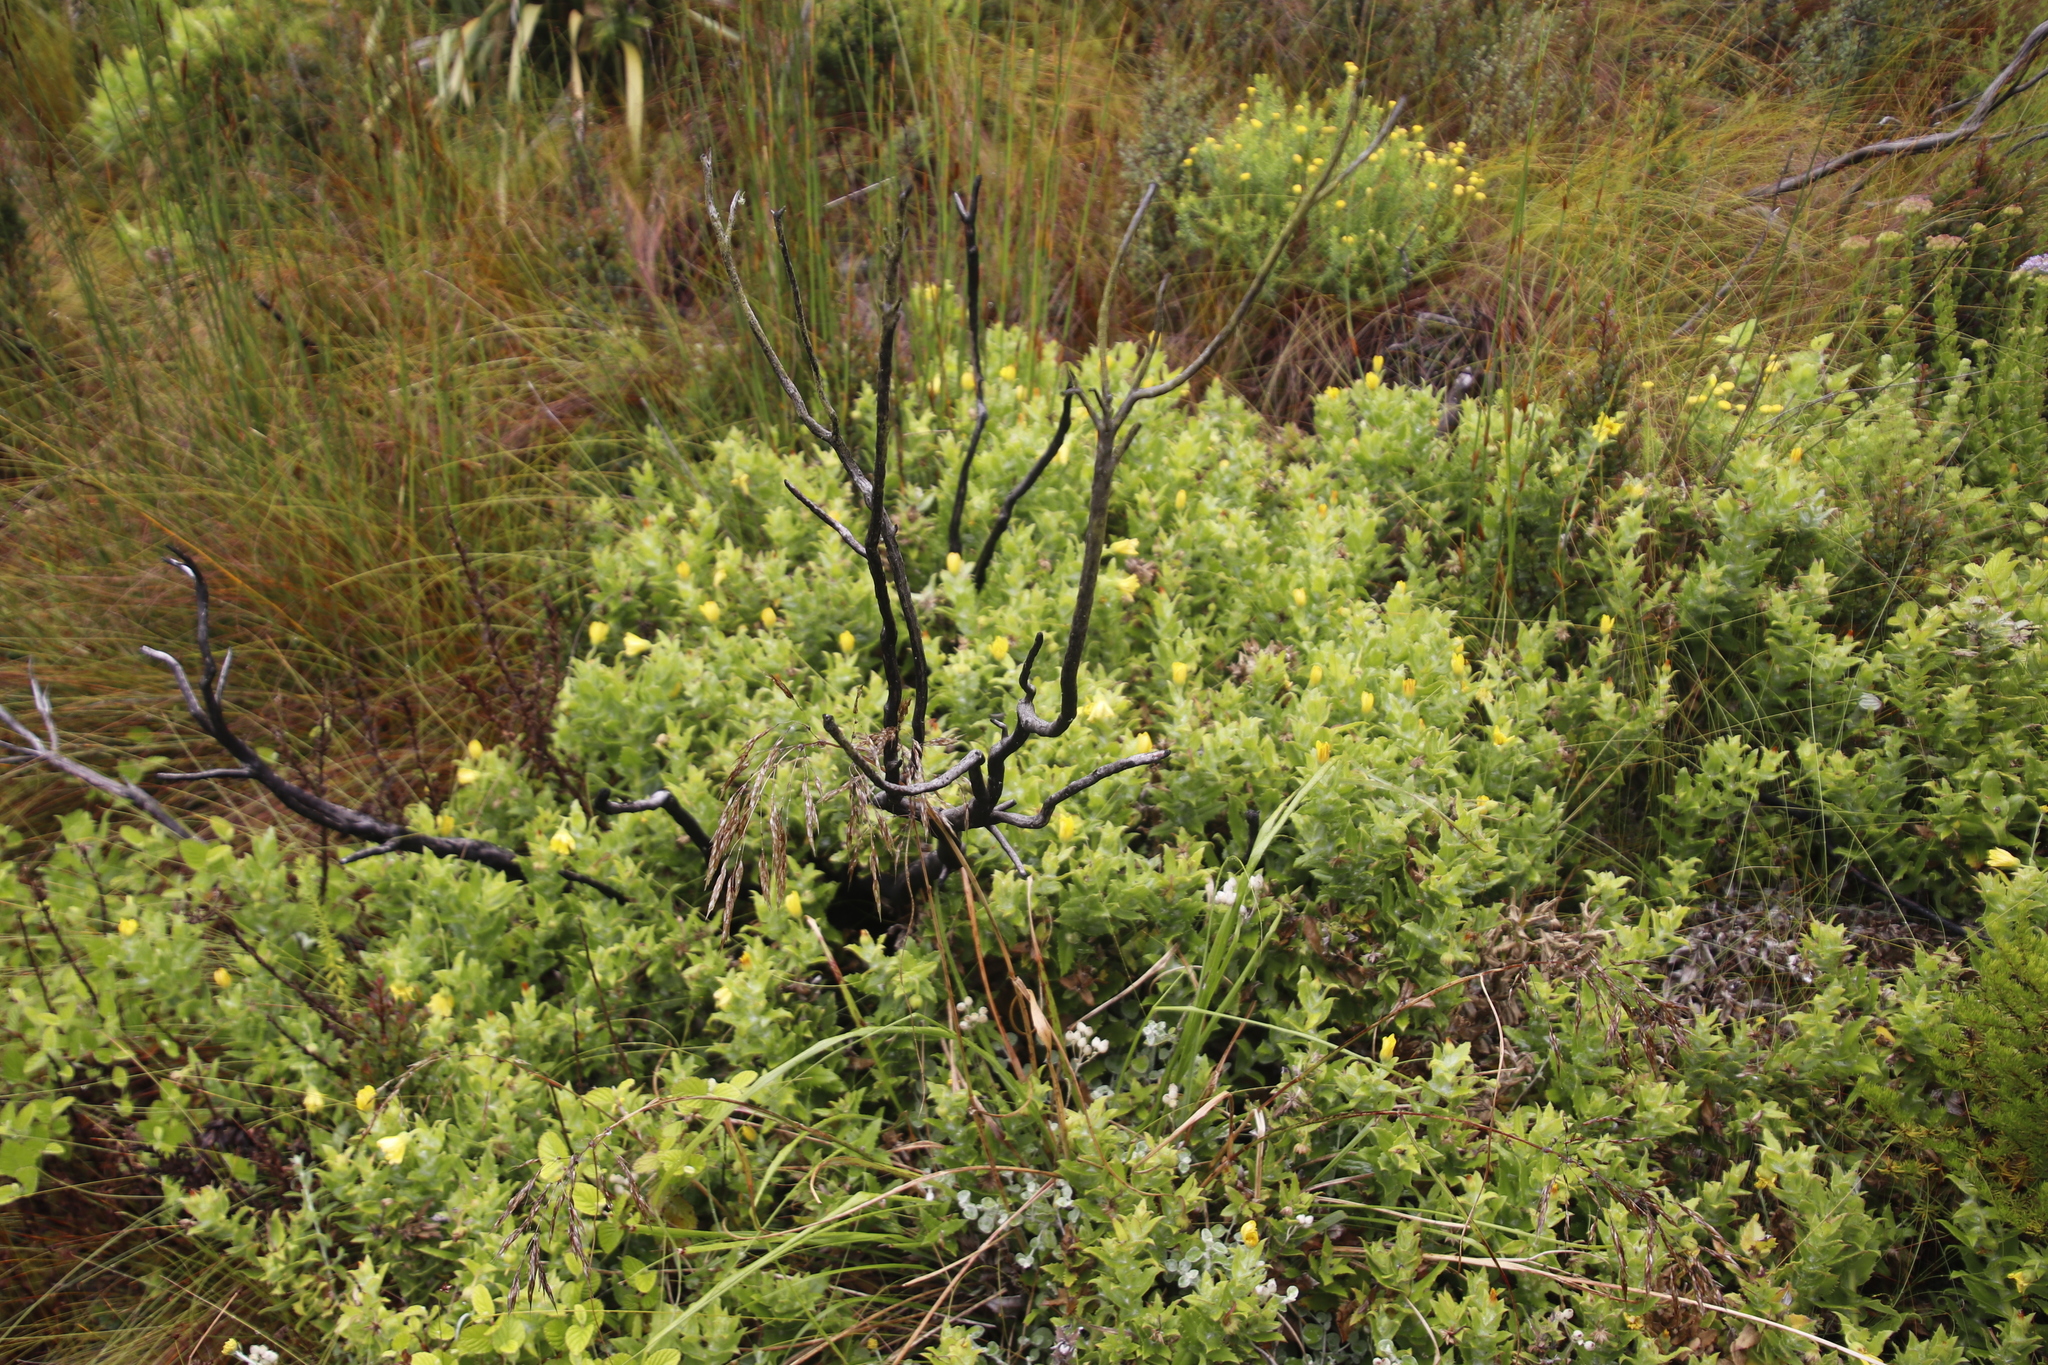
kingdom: Plantae
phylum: Tracheophyta
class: Magnoliopsida
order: Asterales
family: Asteraceae
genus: Osteospermum
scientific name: Osteospermum ilicifolium
